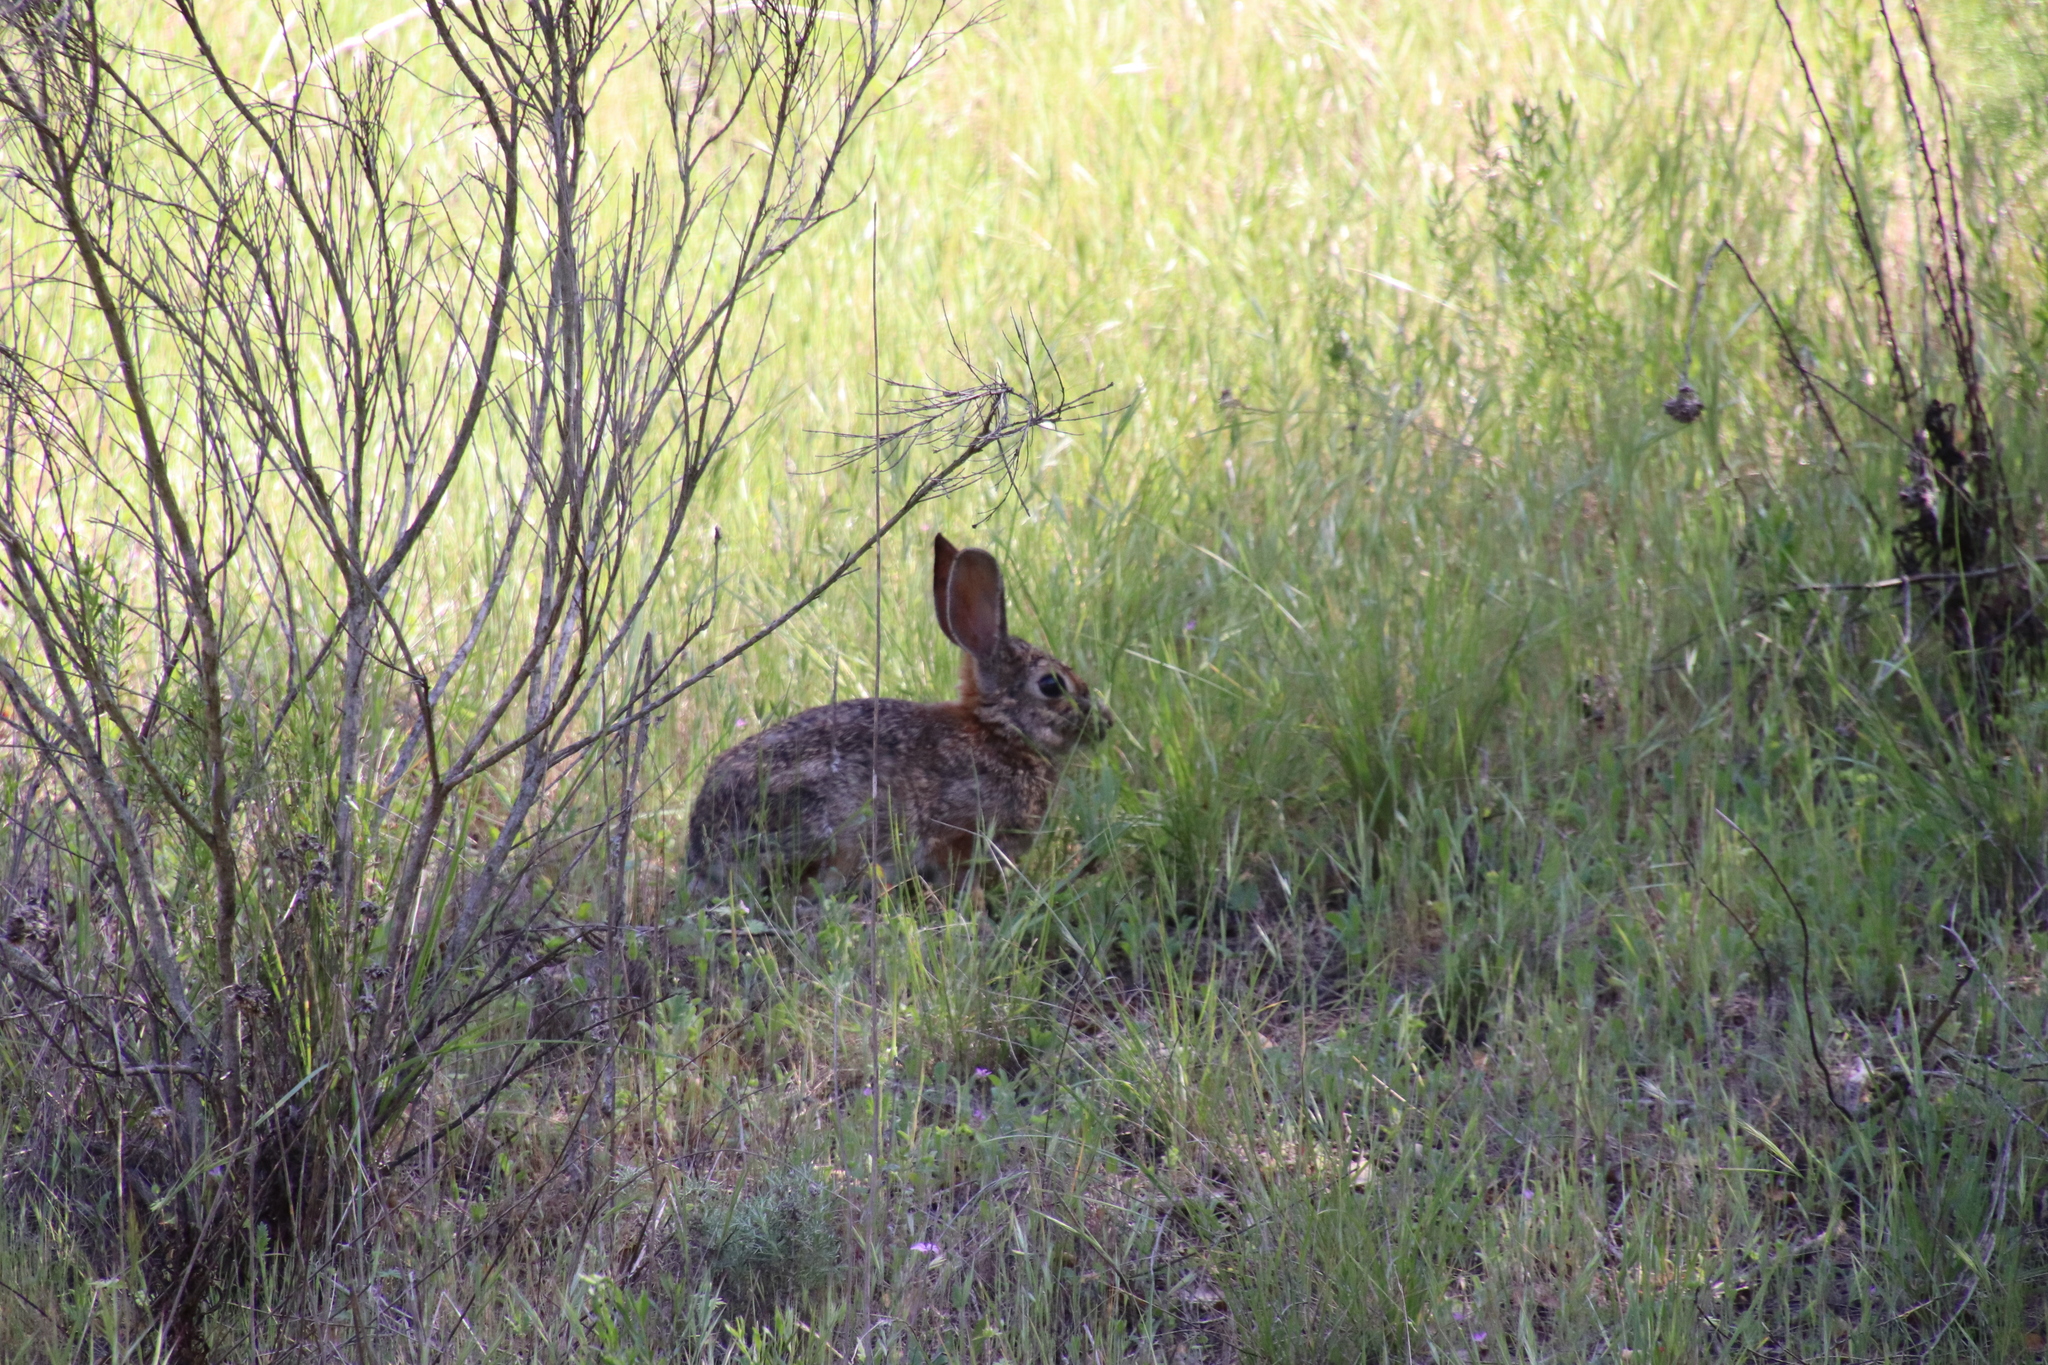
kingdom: Animalia
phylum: Chordata
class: Mammalia
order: Lagomorpha
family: Leporidae
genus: Sylvilagus
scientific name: Sylvilagus audubonii
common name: Desert cottontail
